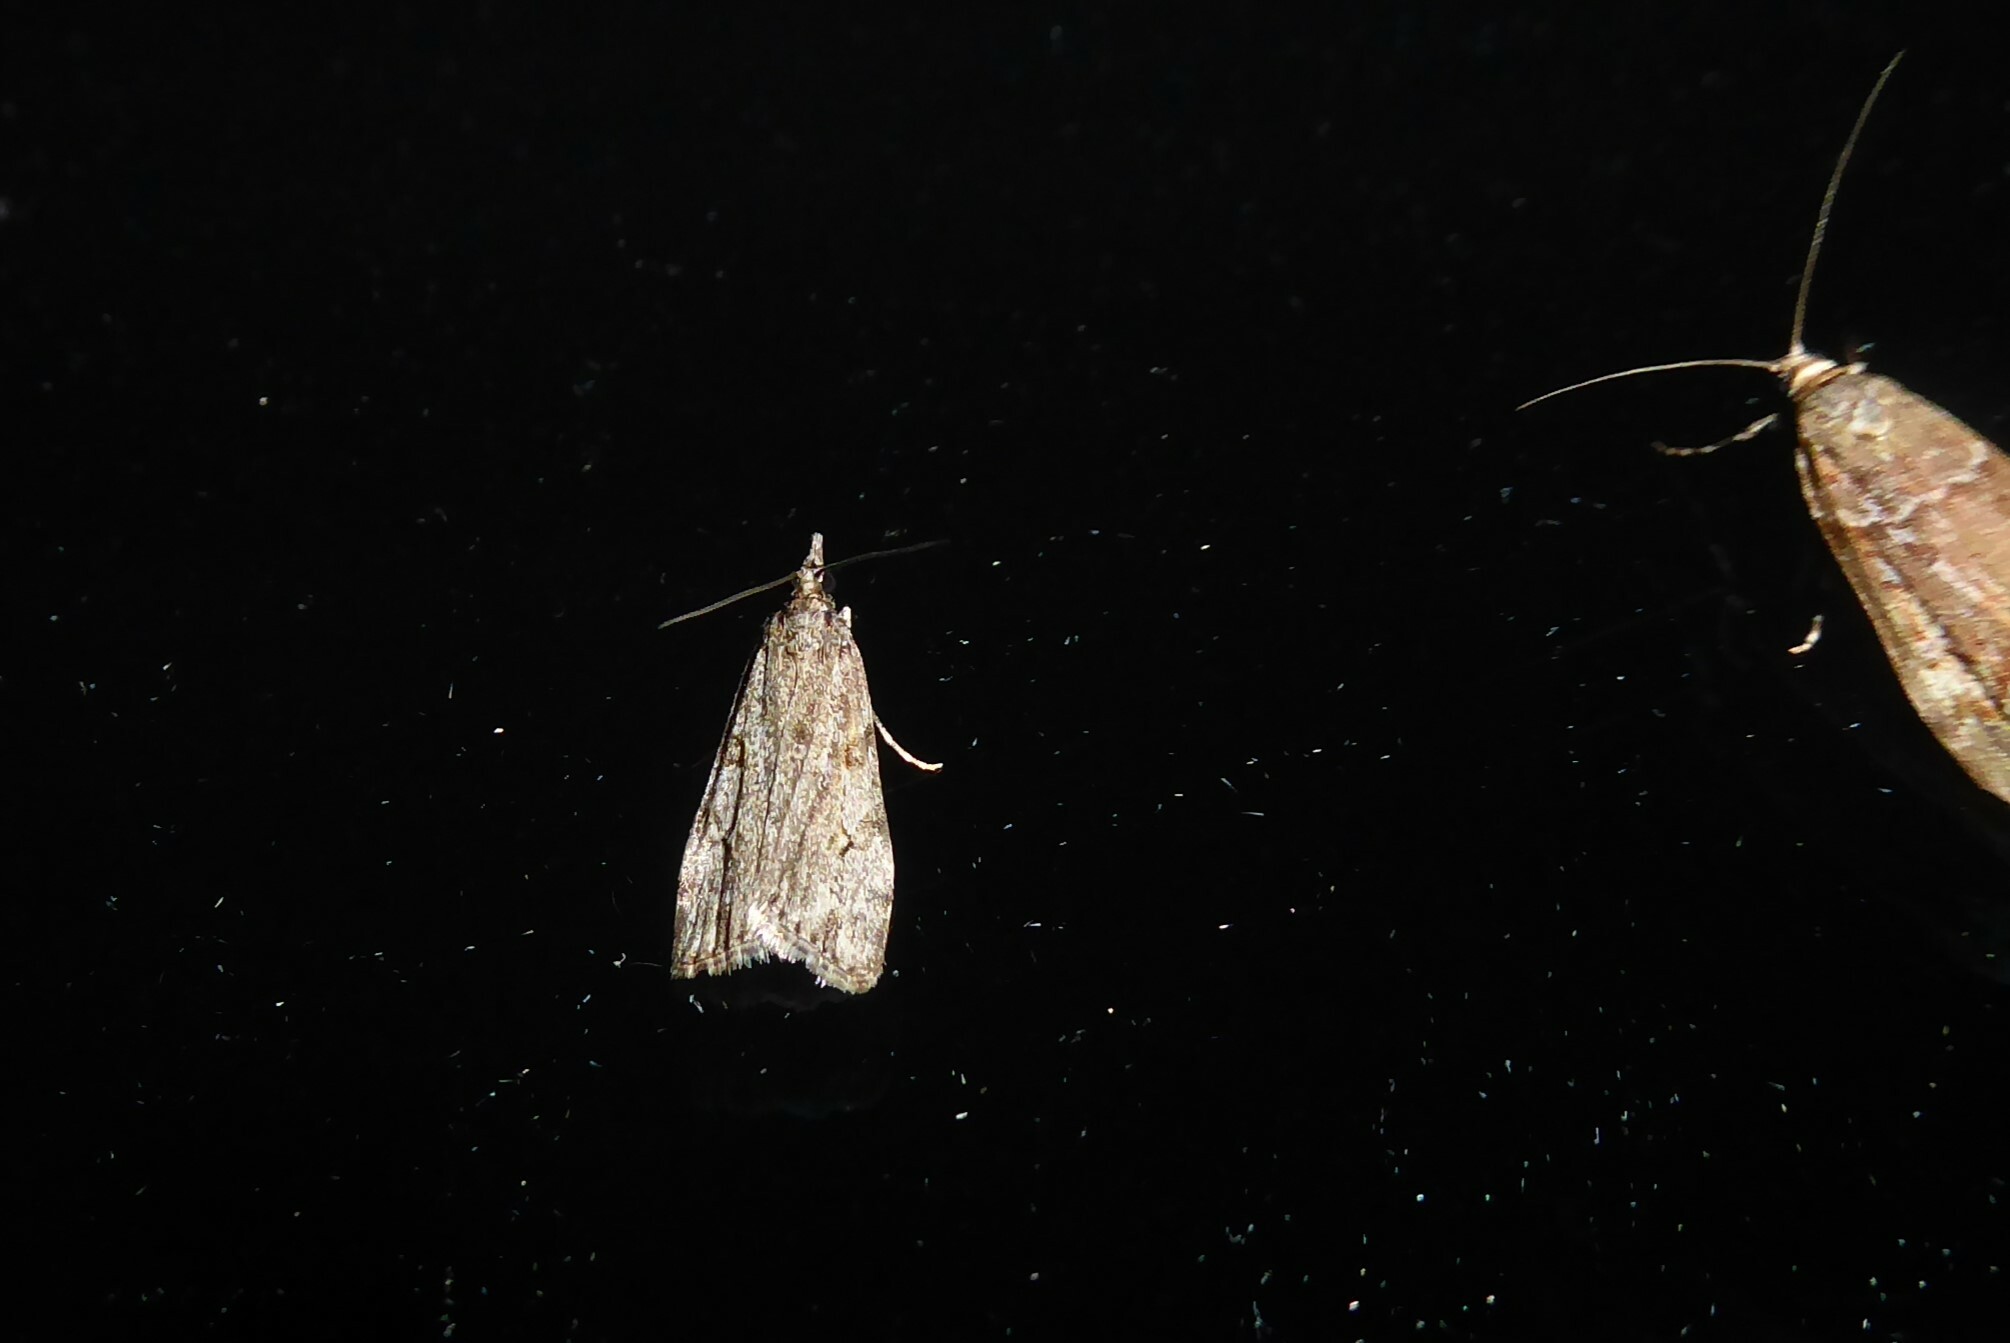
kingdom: Animalia
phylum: Arthropoda
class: Insecta
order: Lepidoptera
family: Crambidae
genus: Eudonia
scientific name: Eudonia cymatias
